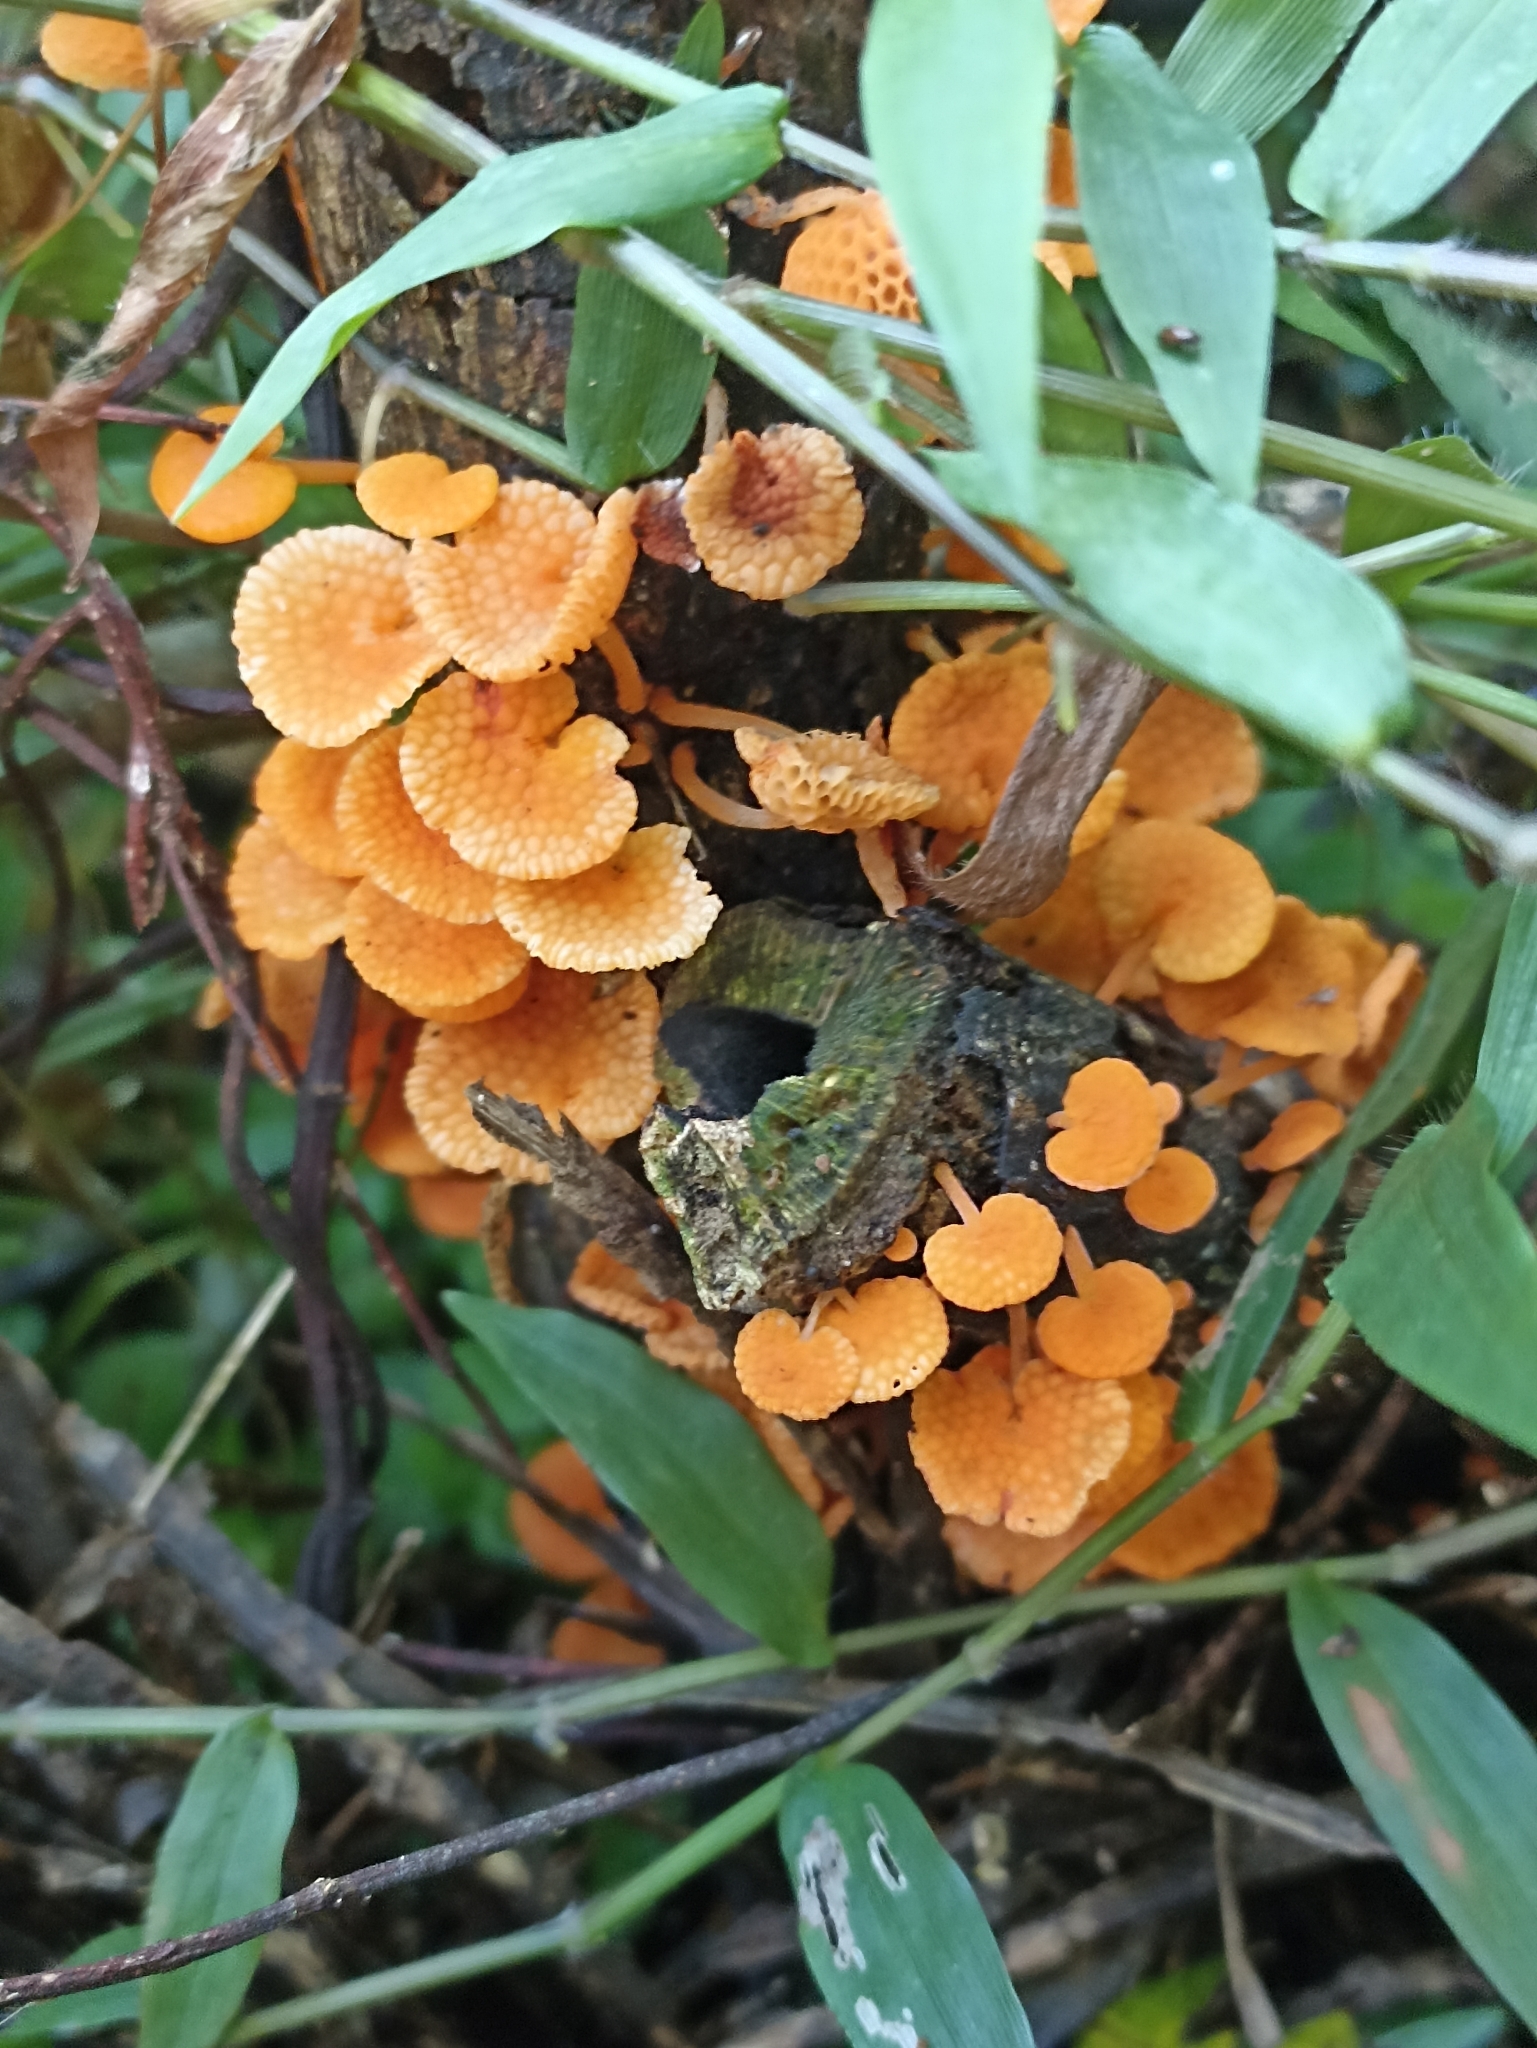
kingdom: Fungi
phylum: Basidiomycota
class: Agaricomycetes
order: Agaricales
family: Mycenaceae
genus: Favolaschia
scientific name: Favolaschia claudopus
